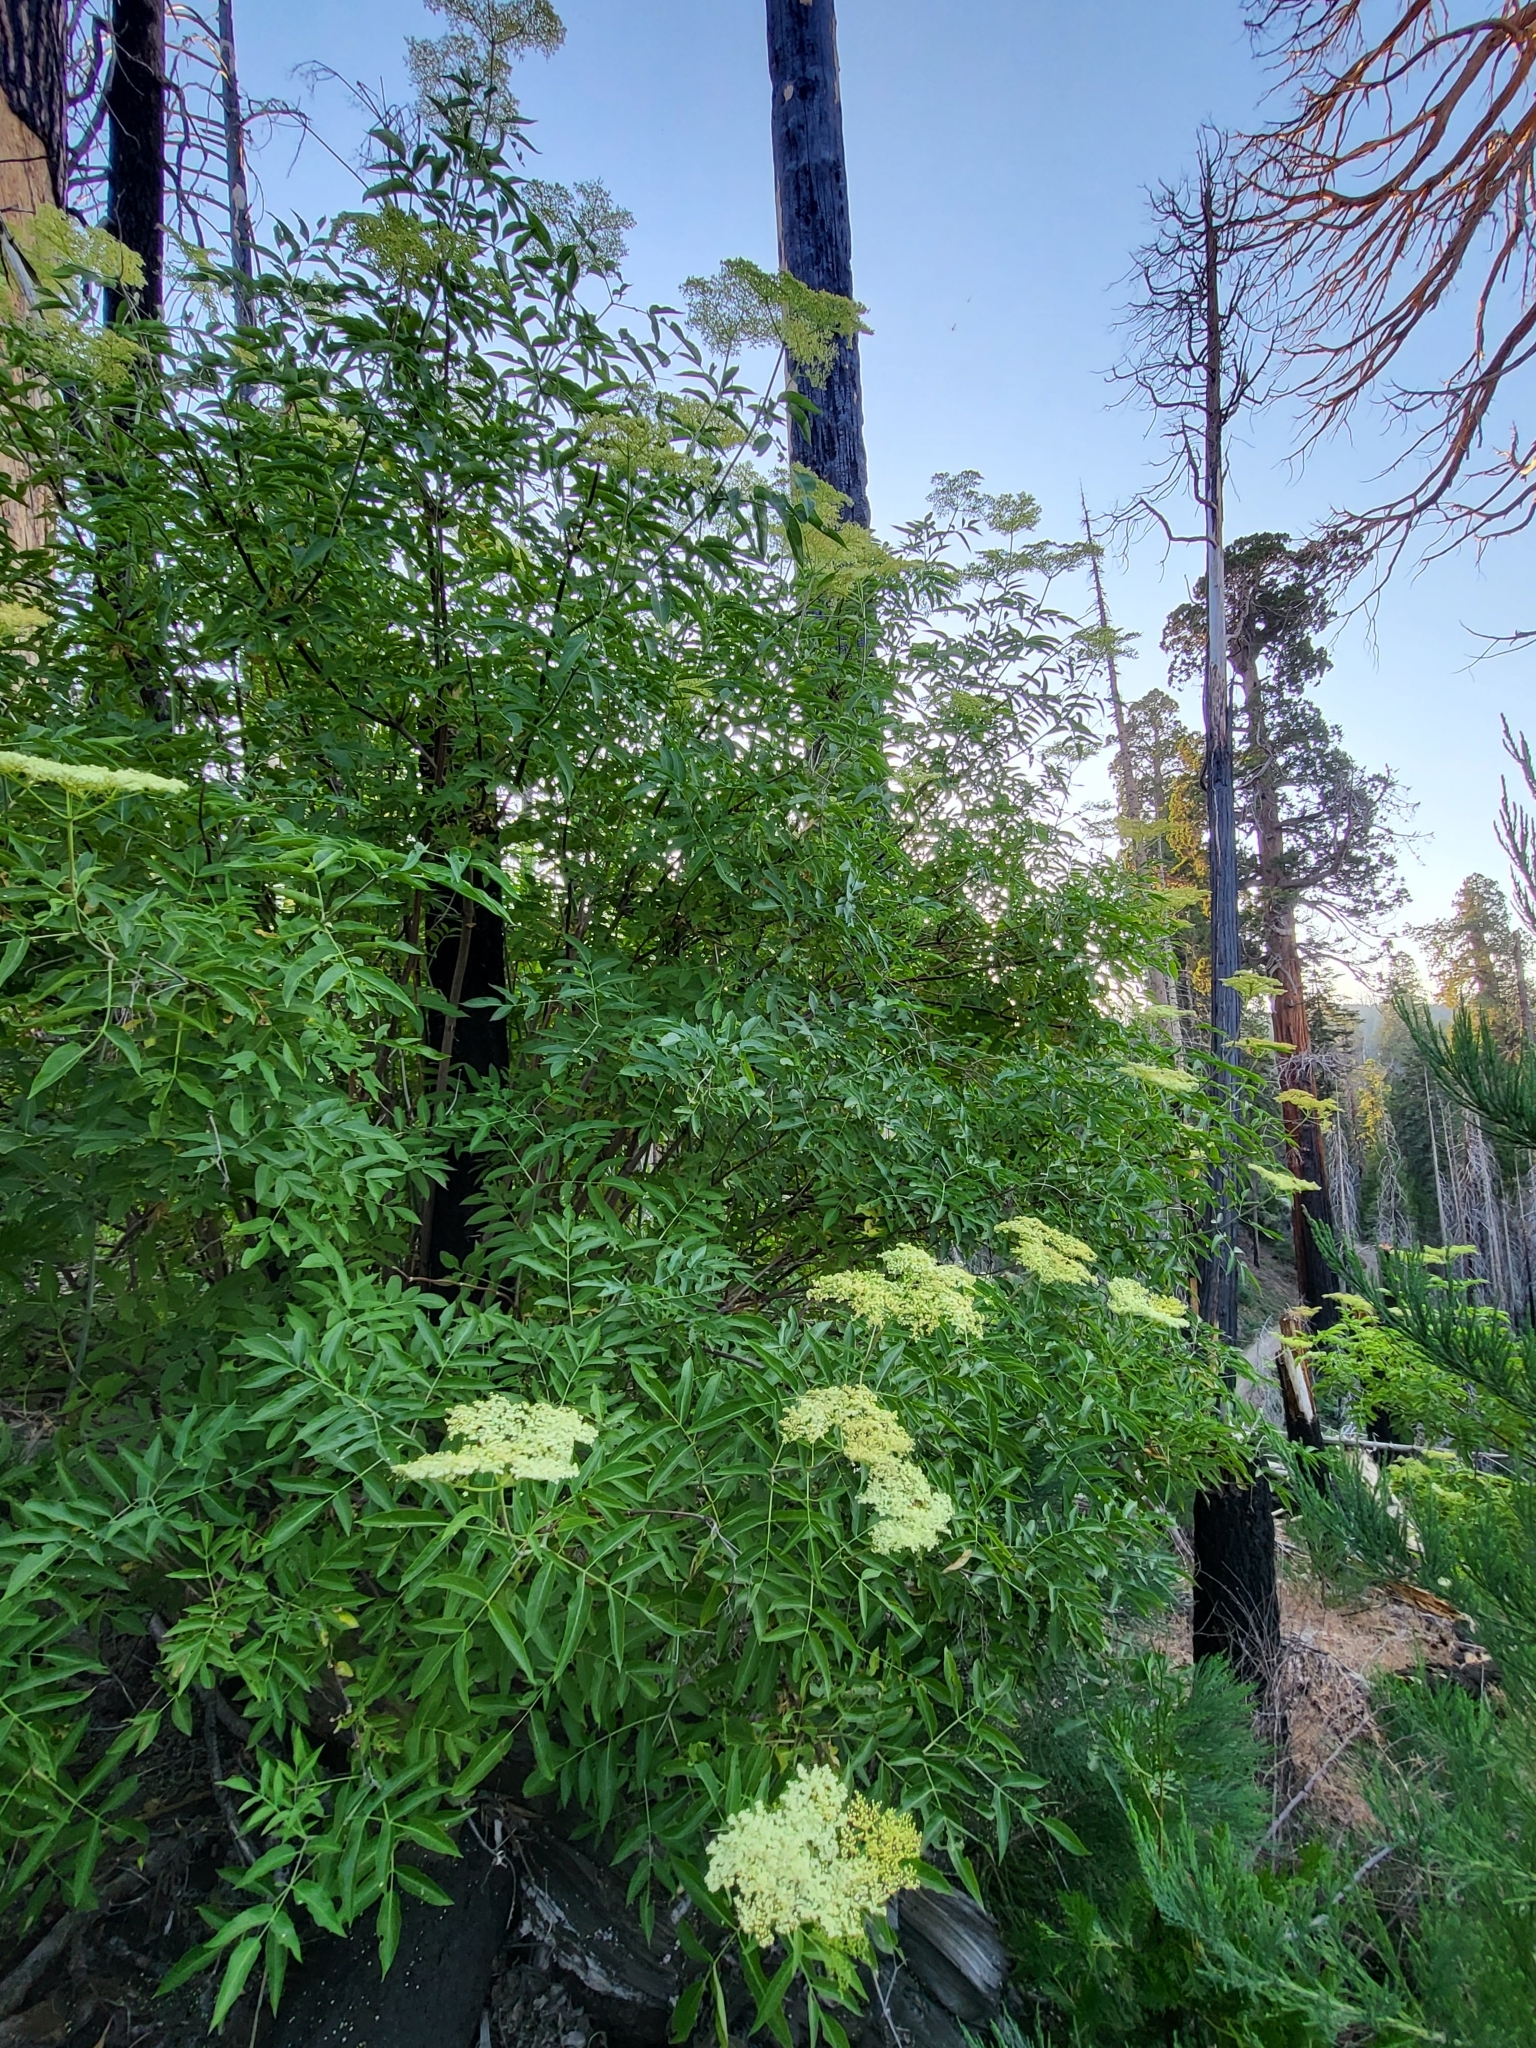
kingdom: Plantae
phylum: Tracheophyta
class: Magnoliopsida
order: Dipsacales
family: Viburnaceae
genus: Sambucus
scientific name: Sambucus cerulea
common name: Blue elder
